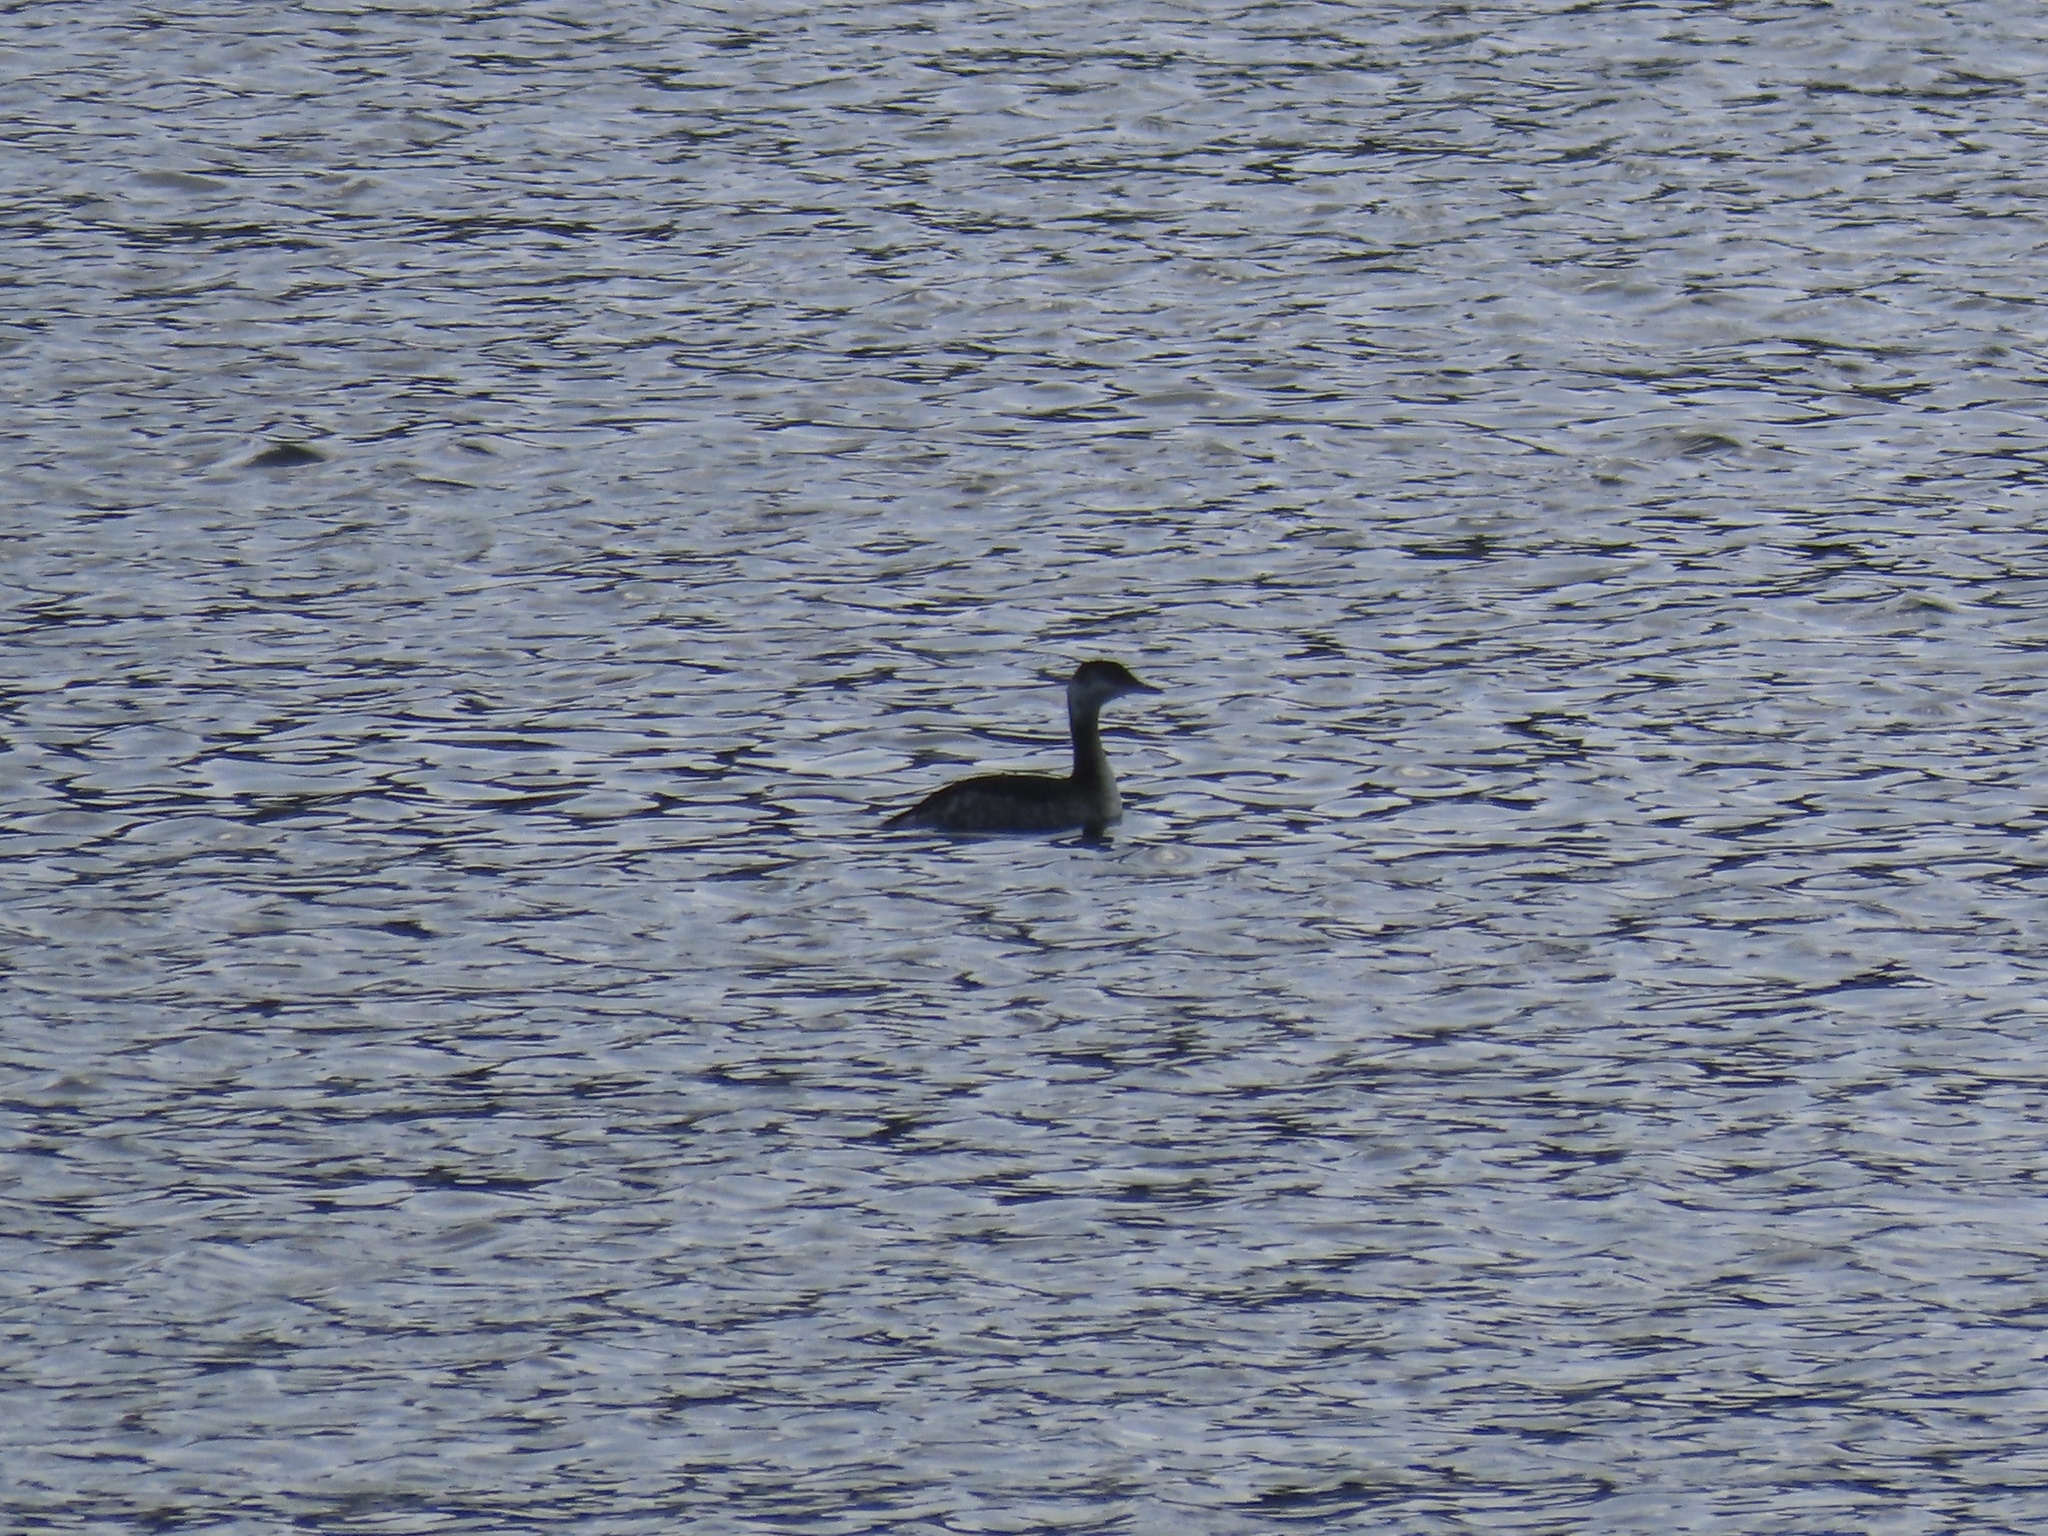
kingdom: Animalia
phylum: Chordata
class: Aves
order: Podicipediformes
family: Podicipedidae
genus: Podiceps
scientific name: Podiceps auritus
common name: Horned grebe
